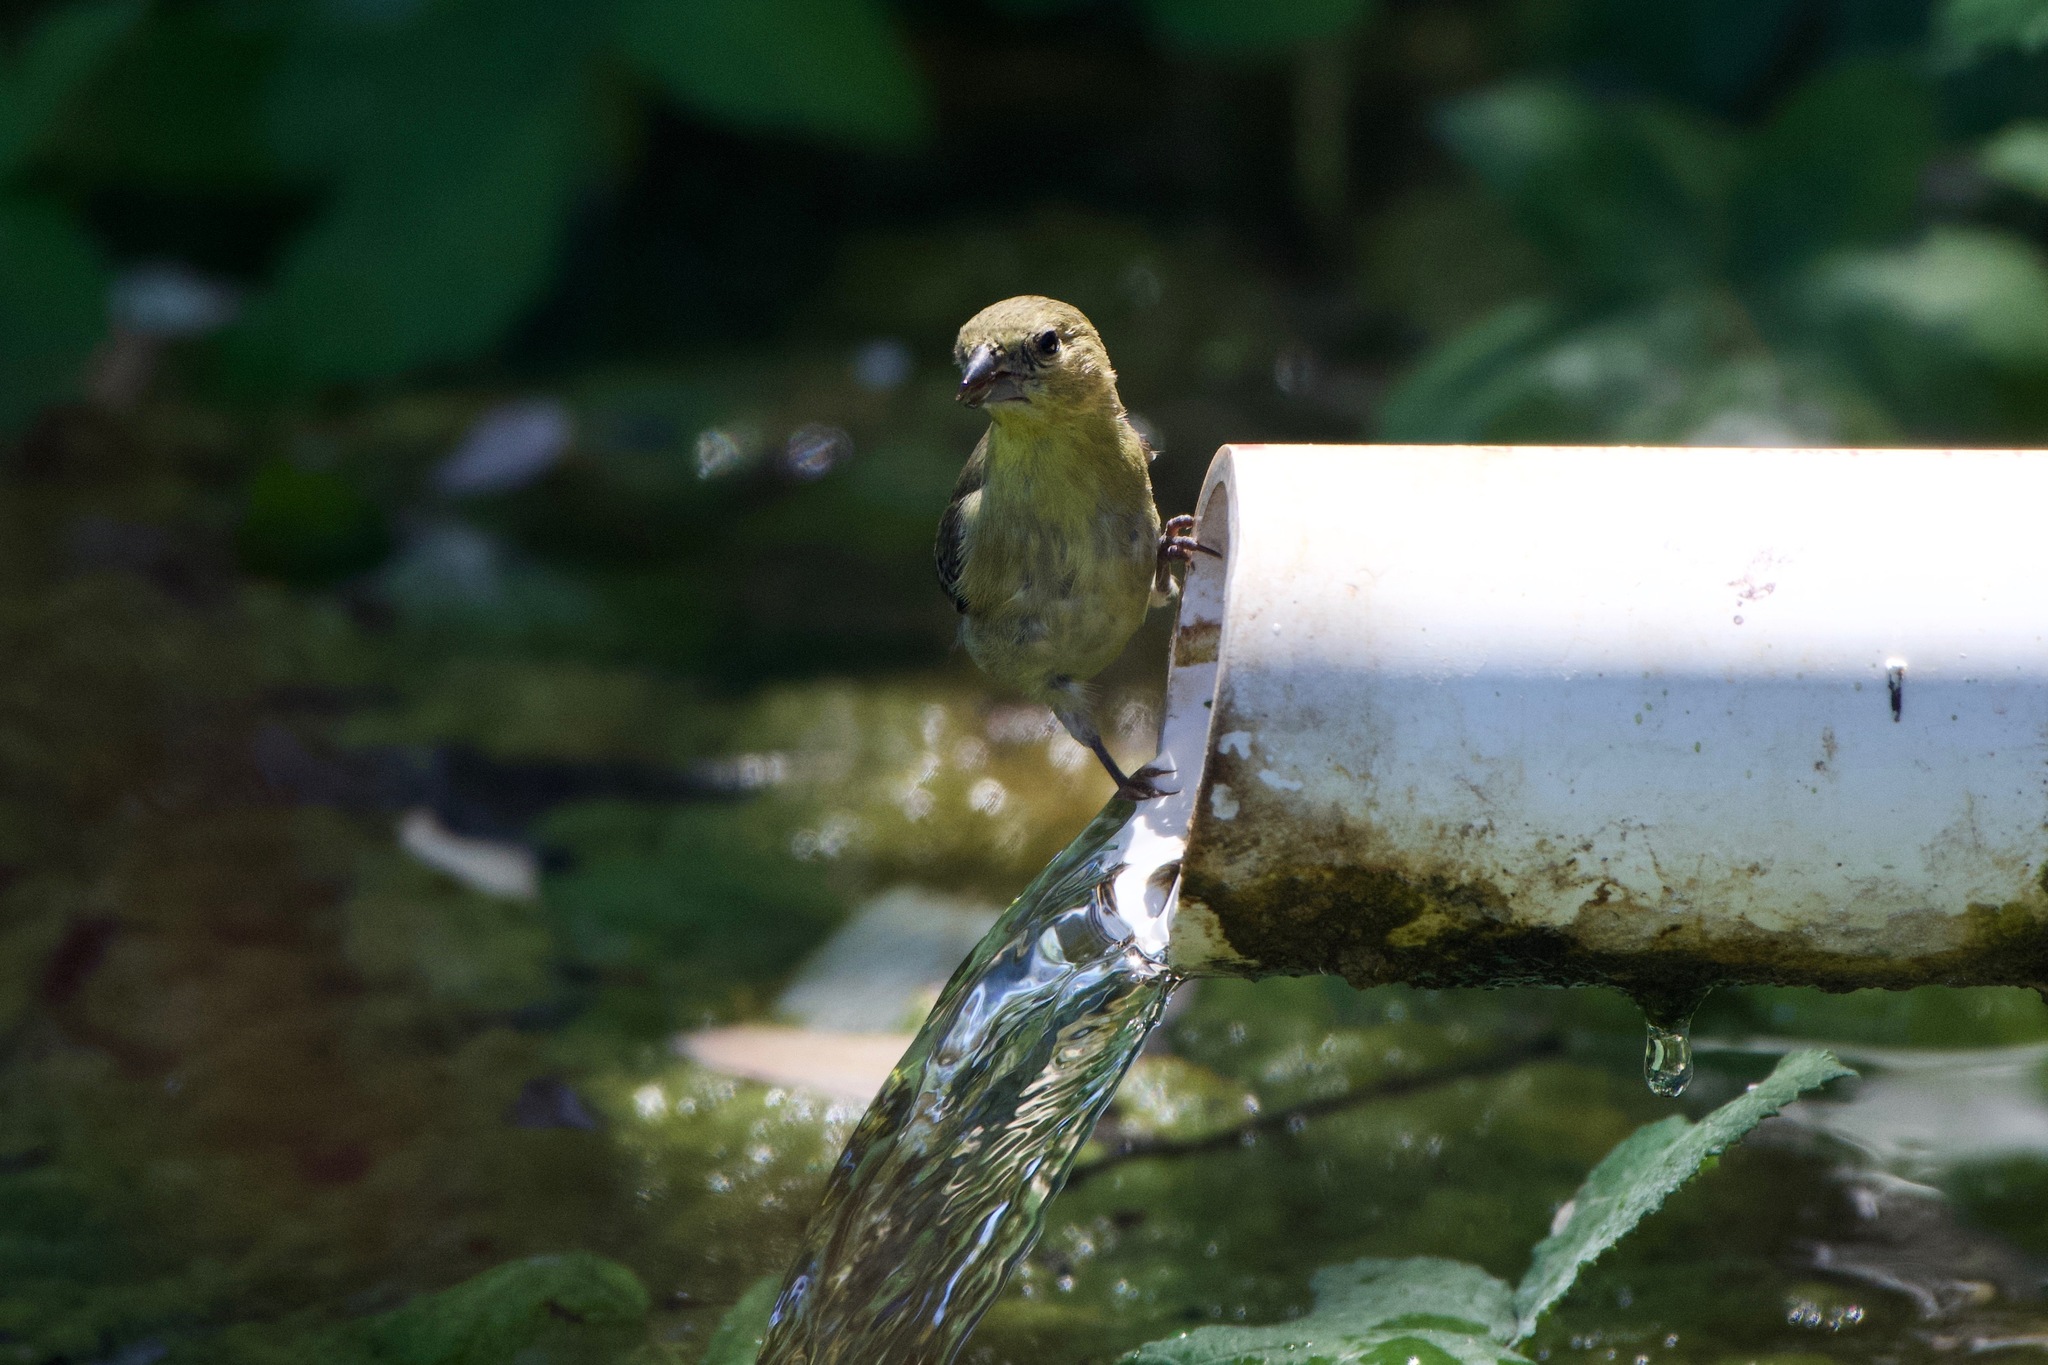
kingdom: Animalia
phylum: Chordata
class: Aves
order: Passeriformes
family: Fringillidae
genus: Spinus
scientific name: Spinus psaltria
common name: Lesser goldfinch
